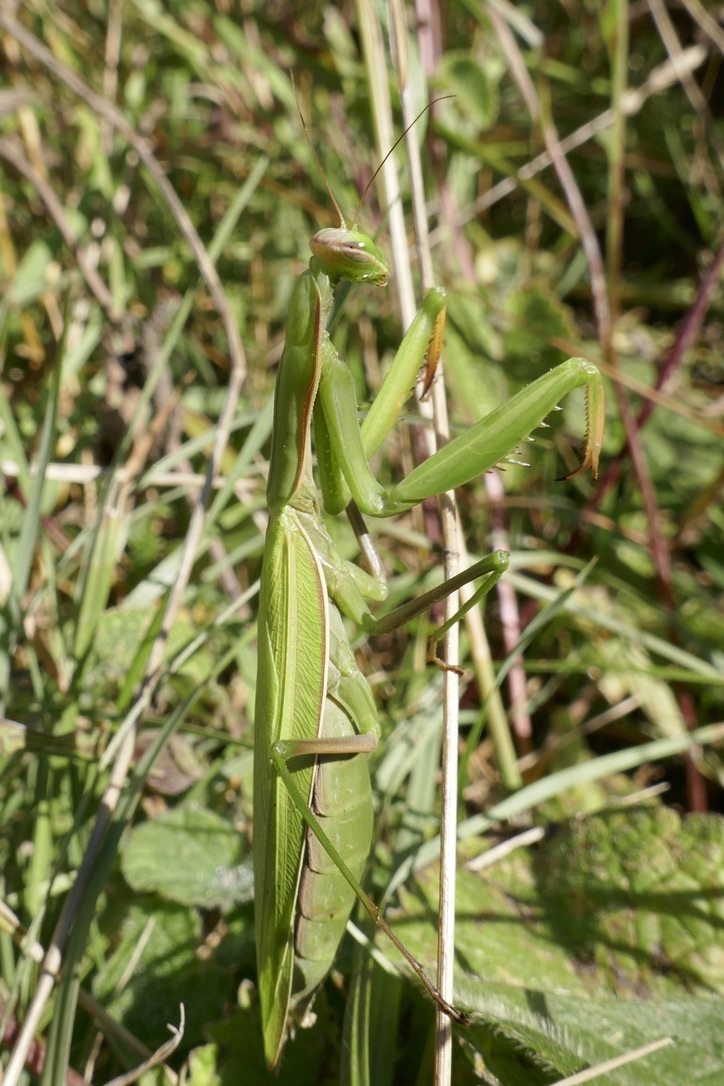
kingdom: Animalia
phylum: Arthropoda
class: Insecta
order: Mantodea
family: Mantidae
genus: Mantis
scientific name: Mantis religiosa
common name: Praying mantis
